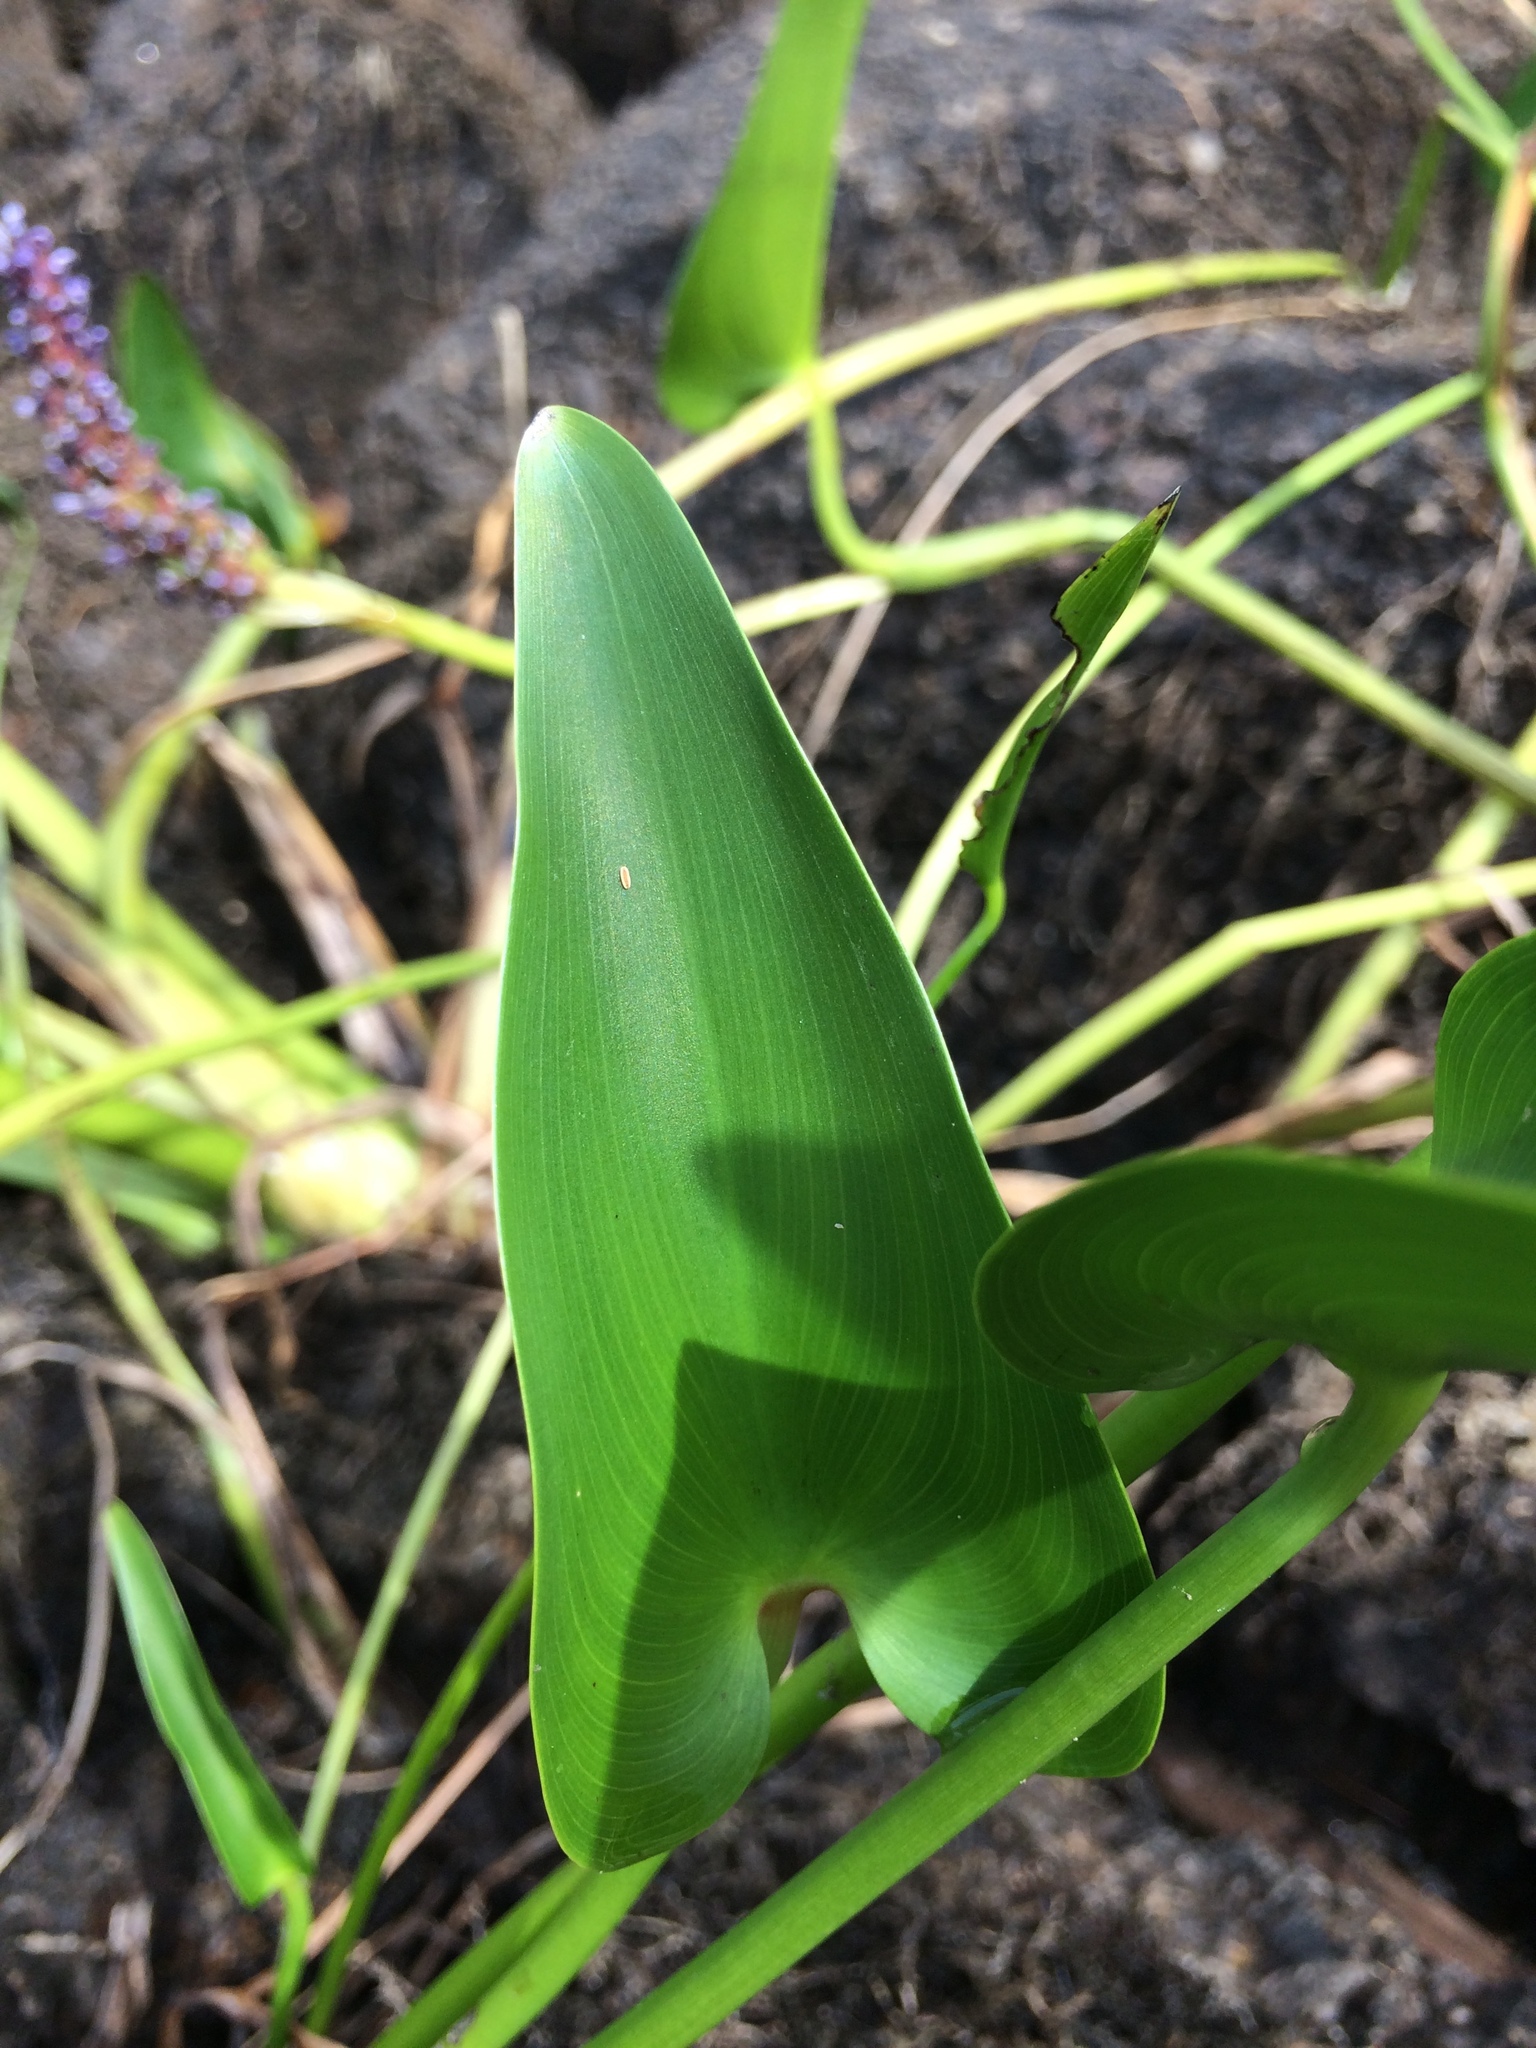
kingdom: Plantae
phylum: Tracheophyta
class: Liliopsida
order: Commelinales
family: Pontederiaceae
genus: Pontederia
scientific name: Pontederia cordata
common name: Pickerelweed
